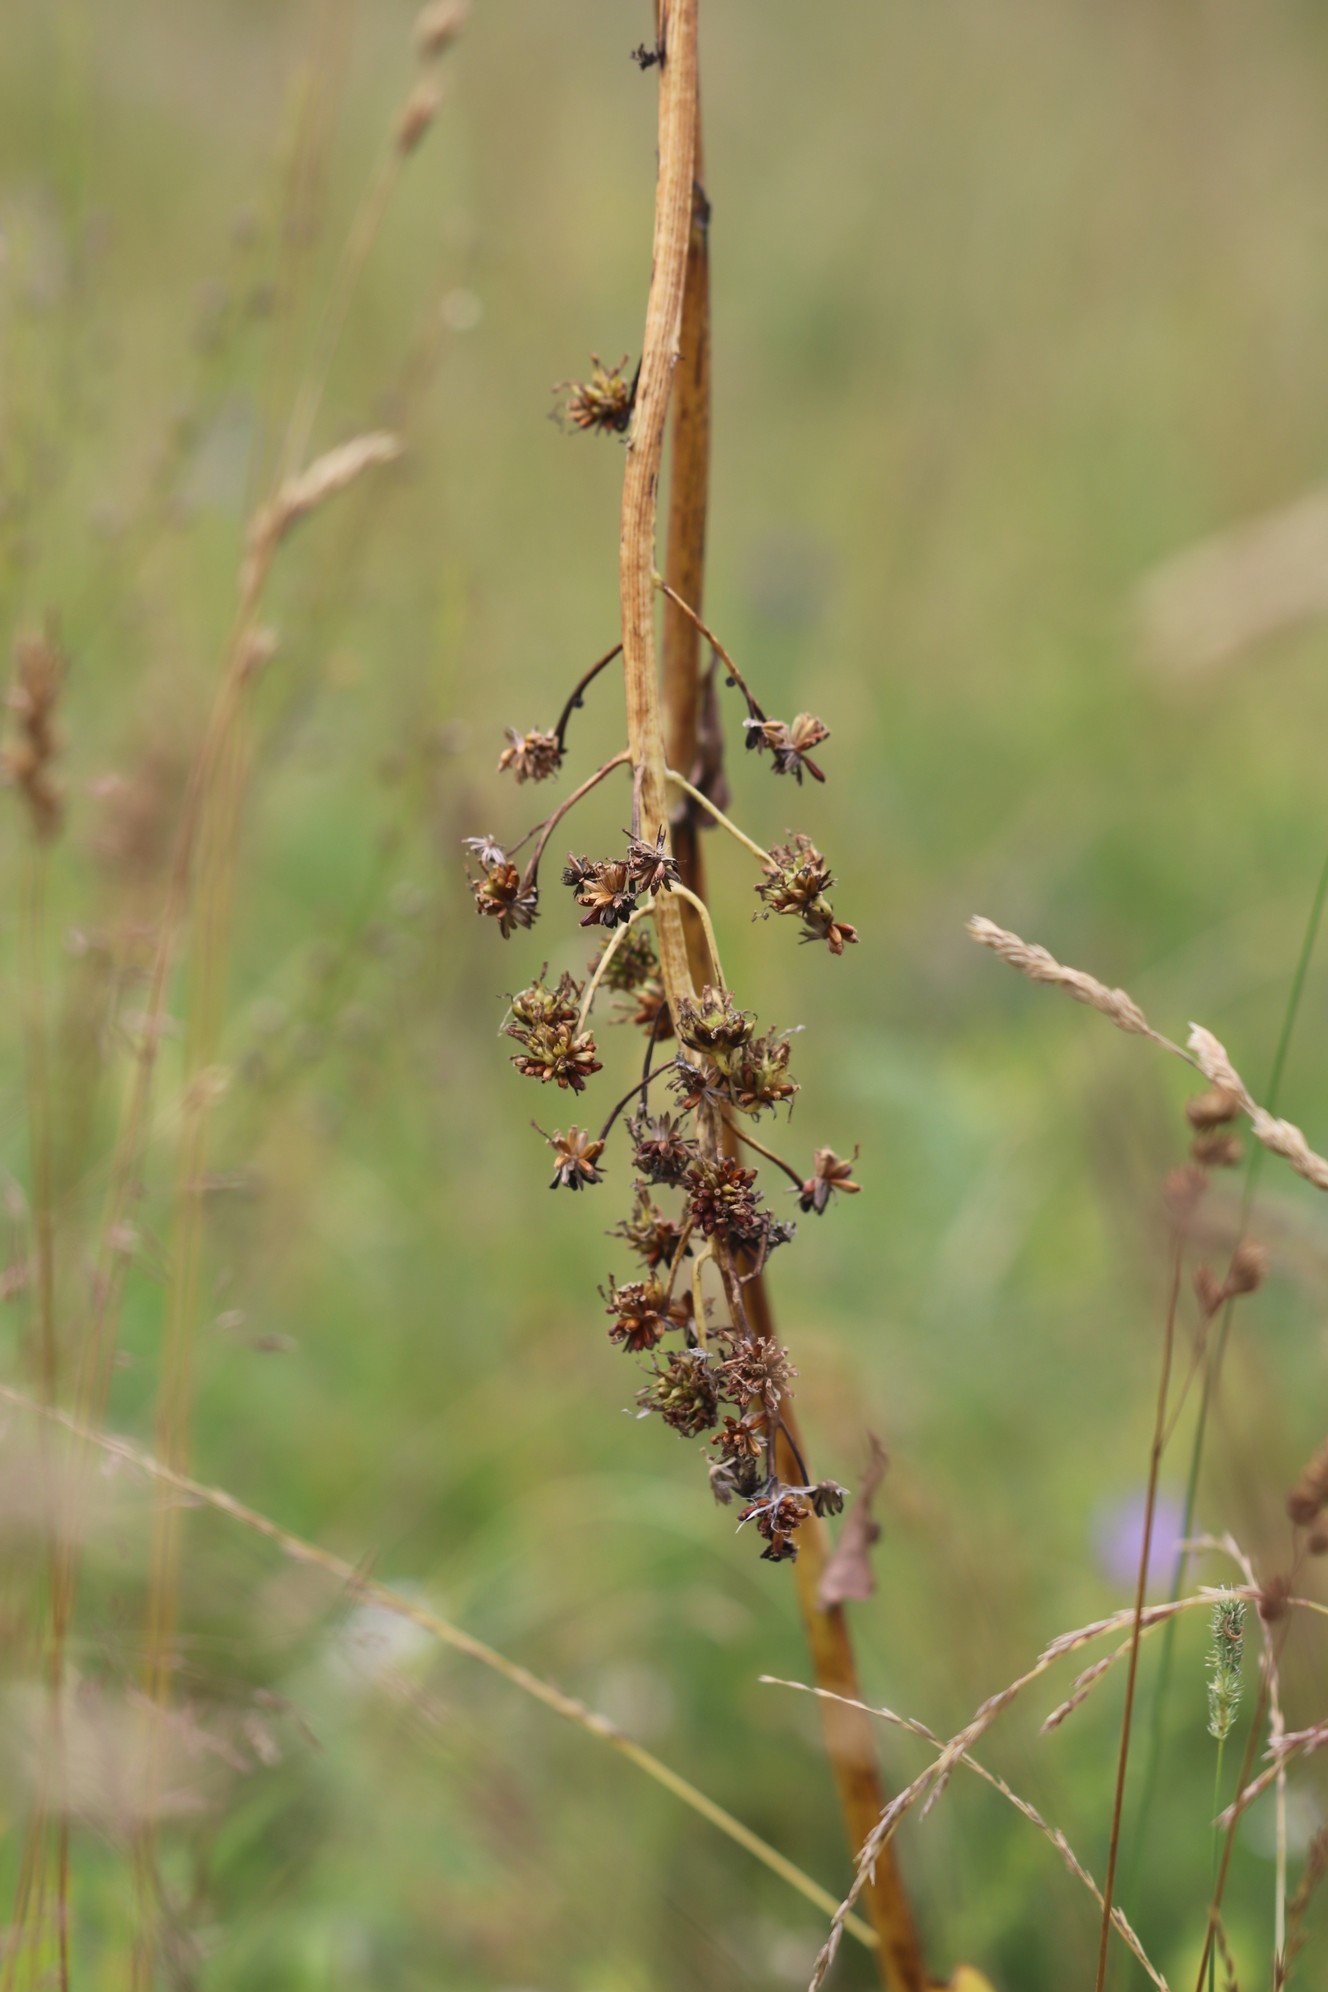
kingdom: Plantae
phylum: Tracheophyta
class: Magnoliopsida
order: Asterales
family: Asteraceae
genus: Ligularia
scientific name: Ligularia glauca
